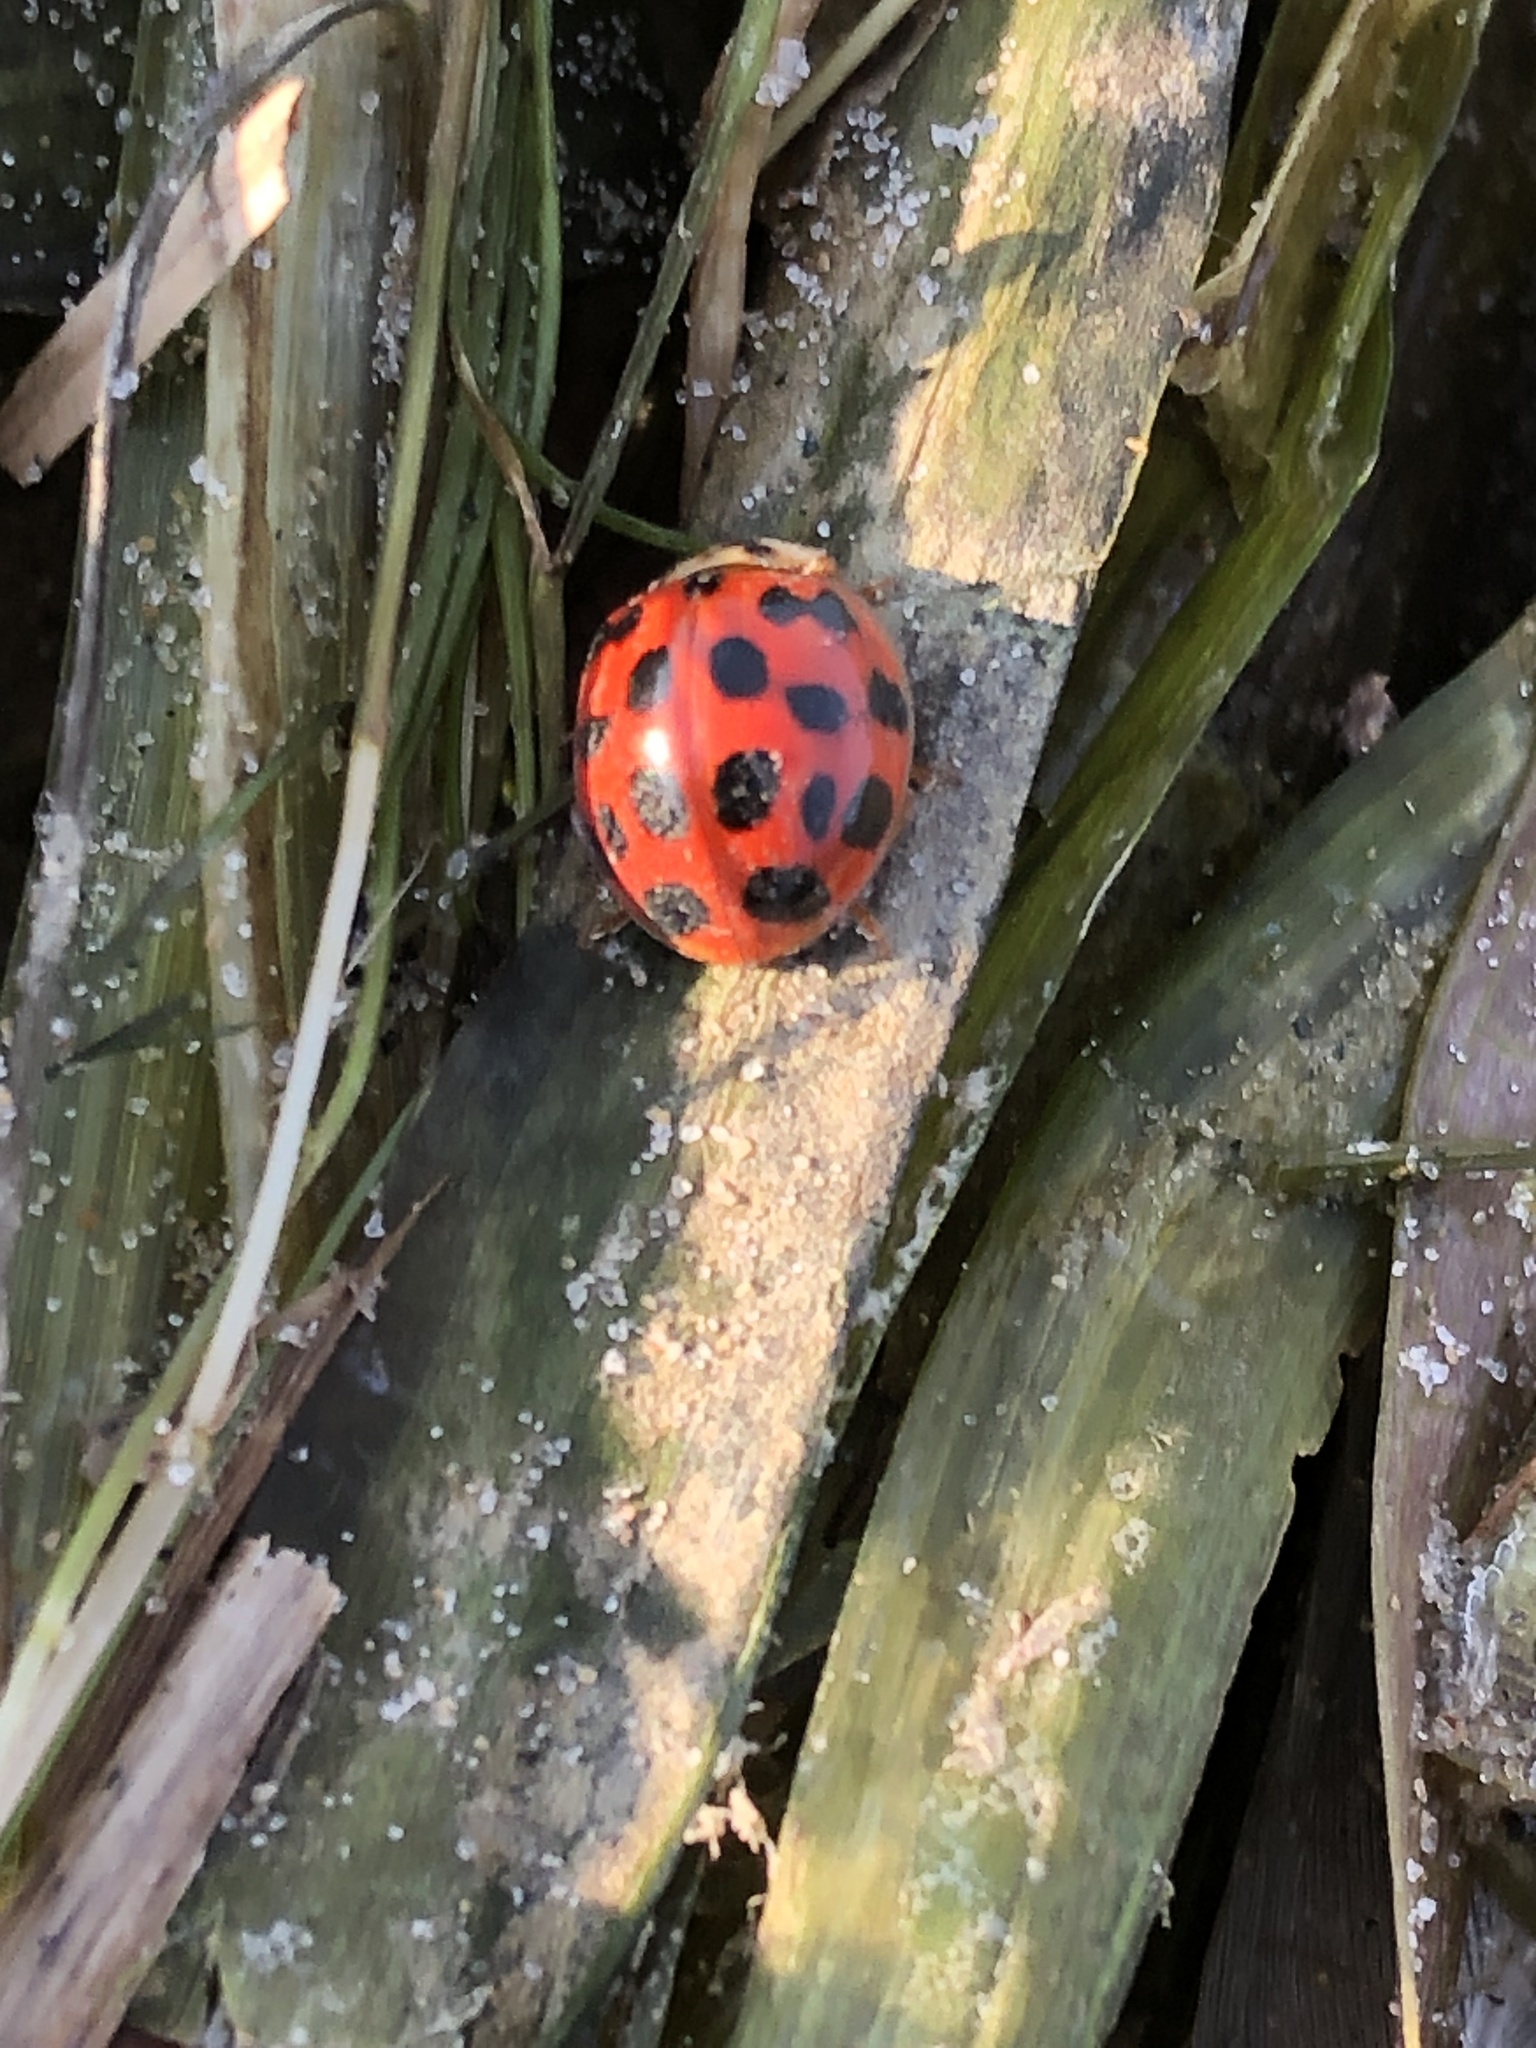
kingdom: Animalia
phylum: Arthropoda
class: Insecta
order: Coleoptera
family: Coccinellidae
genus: Harmonia
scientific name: Harmonia axyridis
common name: Harlequin ladybird
